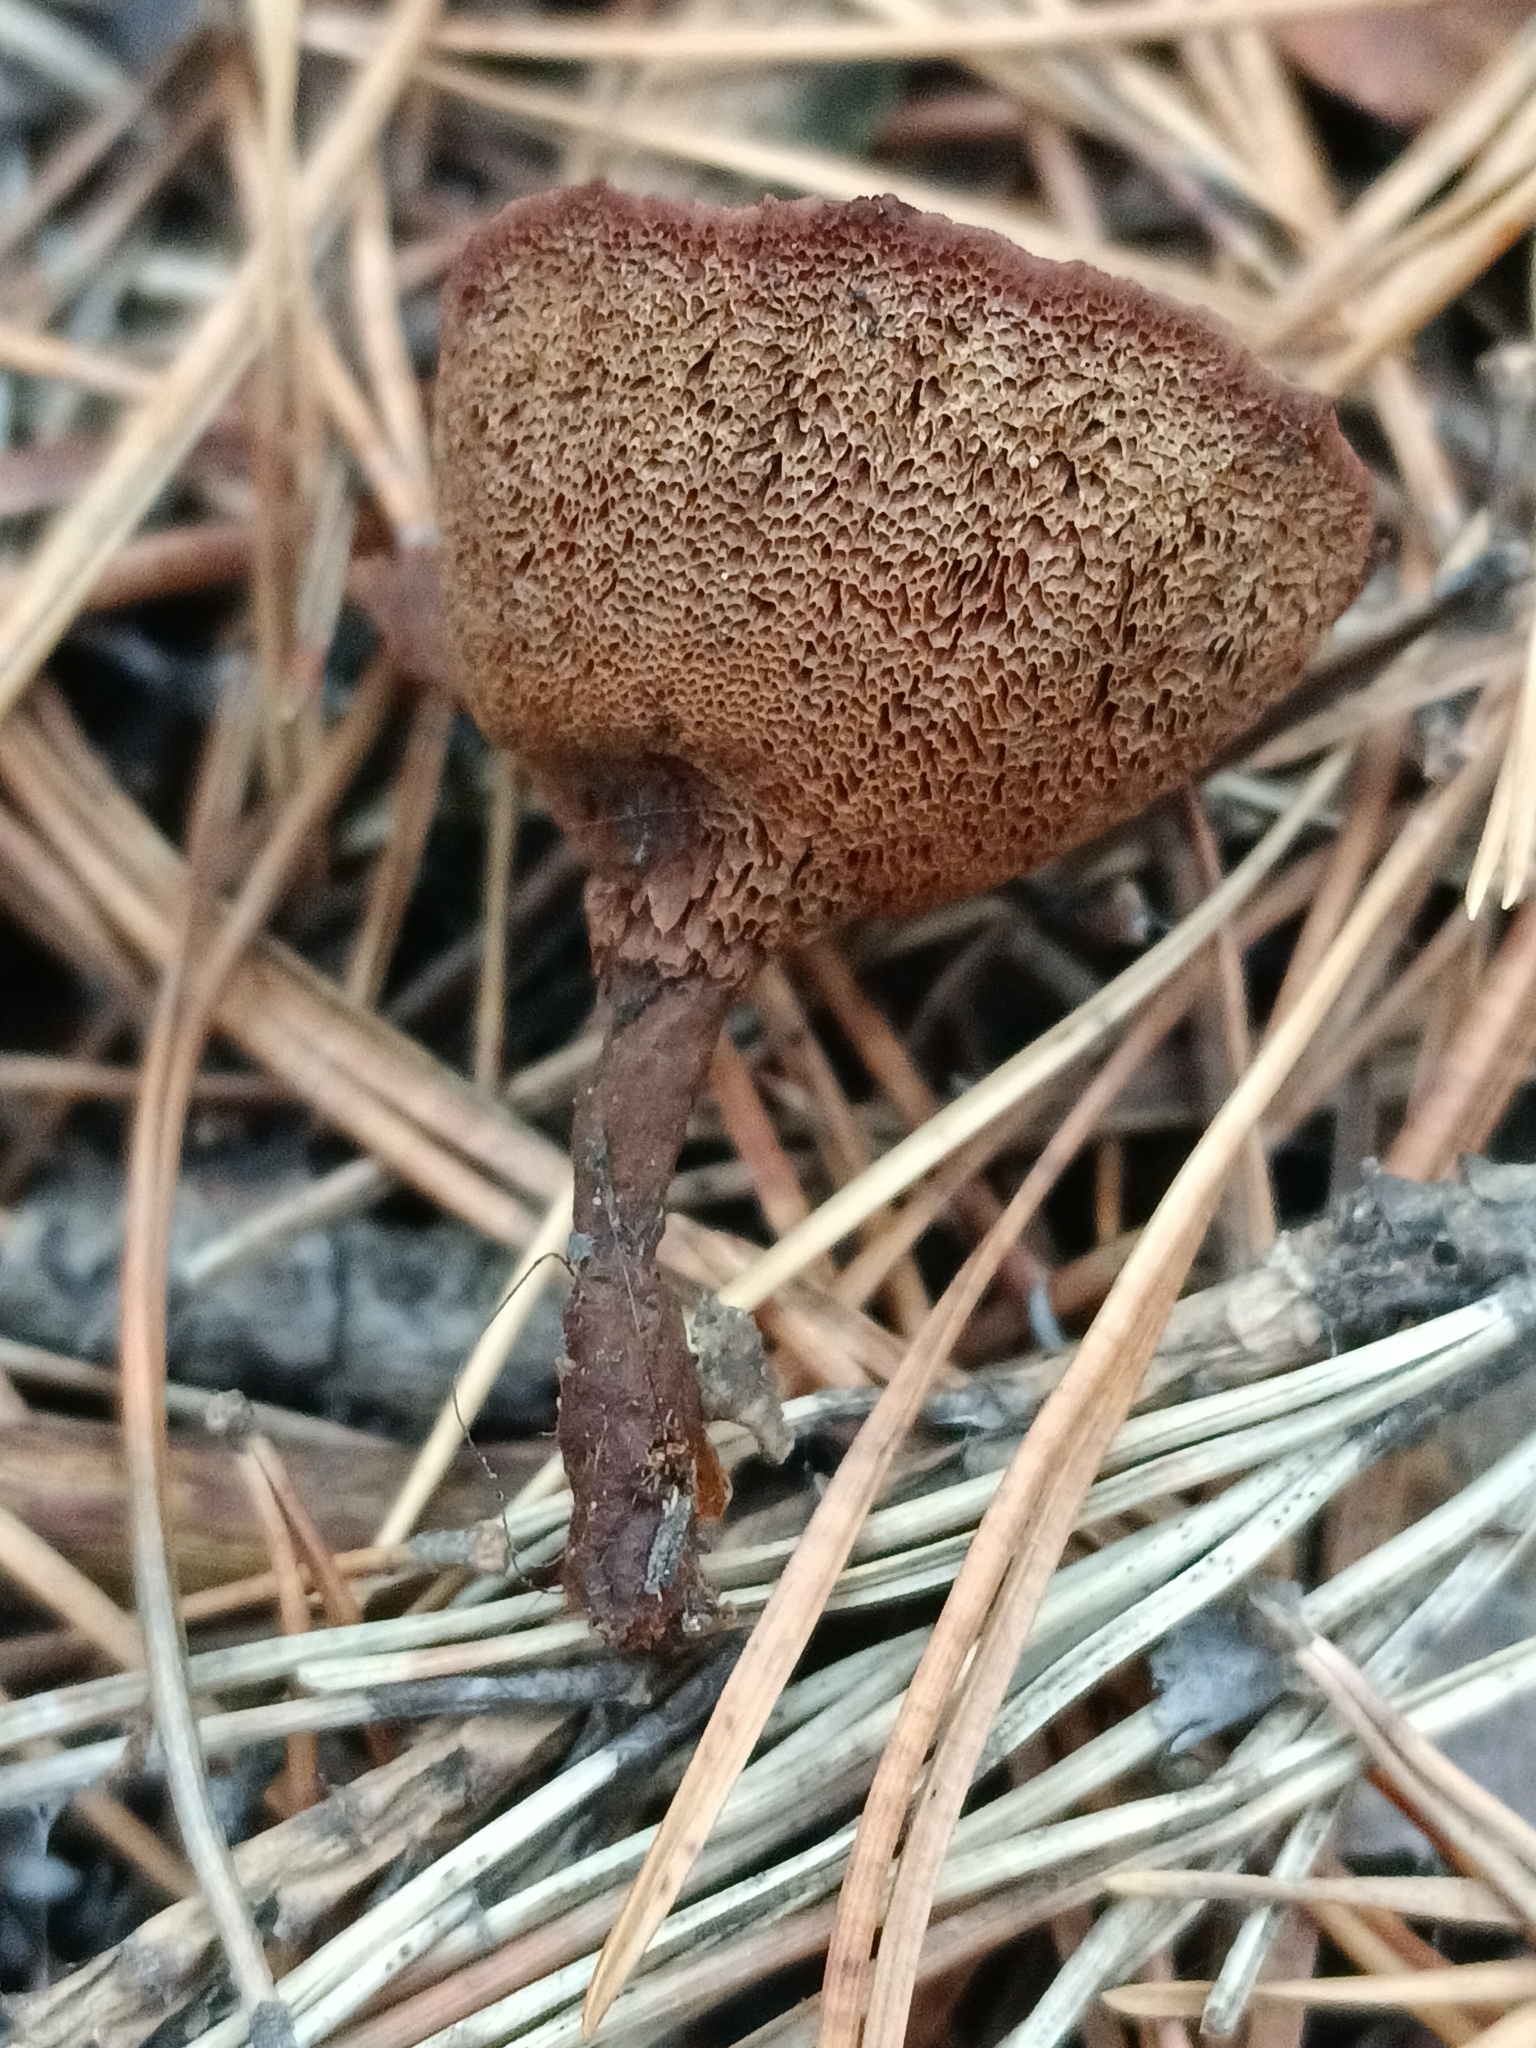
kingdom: Fungi
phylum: Basidiomycota
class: Agaricomycetes
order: Hymenochaetales
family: Hymenochaetaceae
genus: Coltricia
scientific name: Coltricia perennis
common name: Tiger's eye
